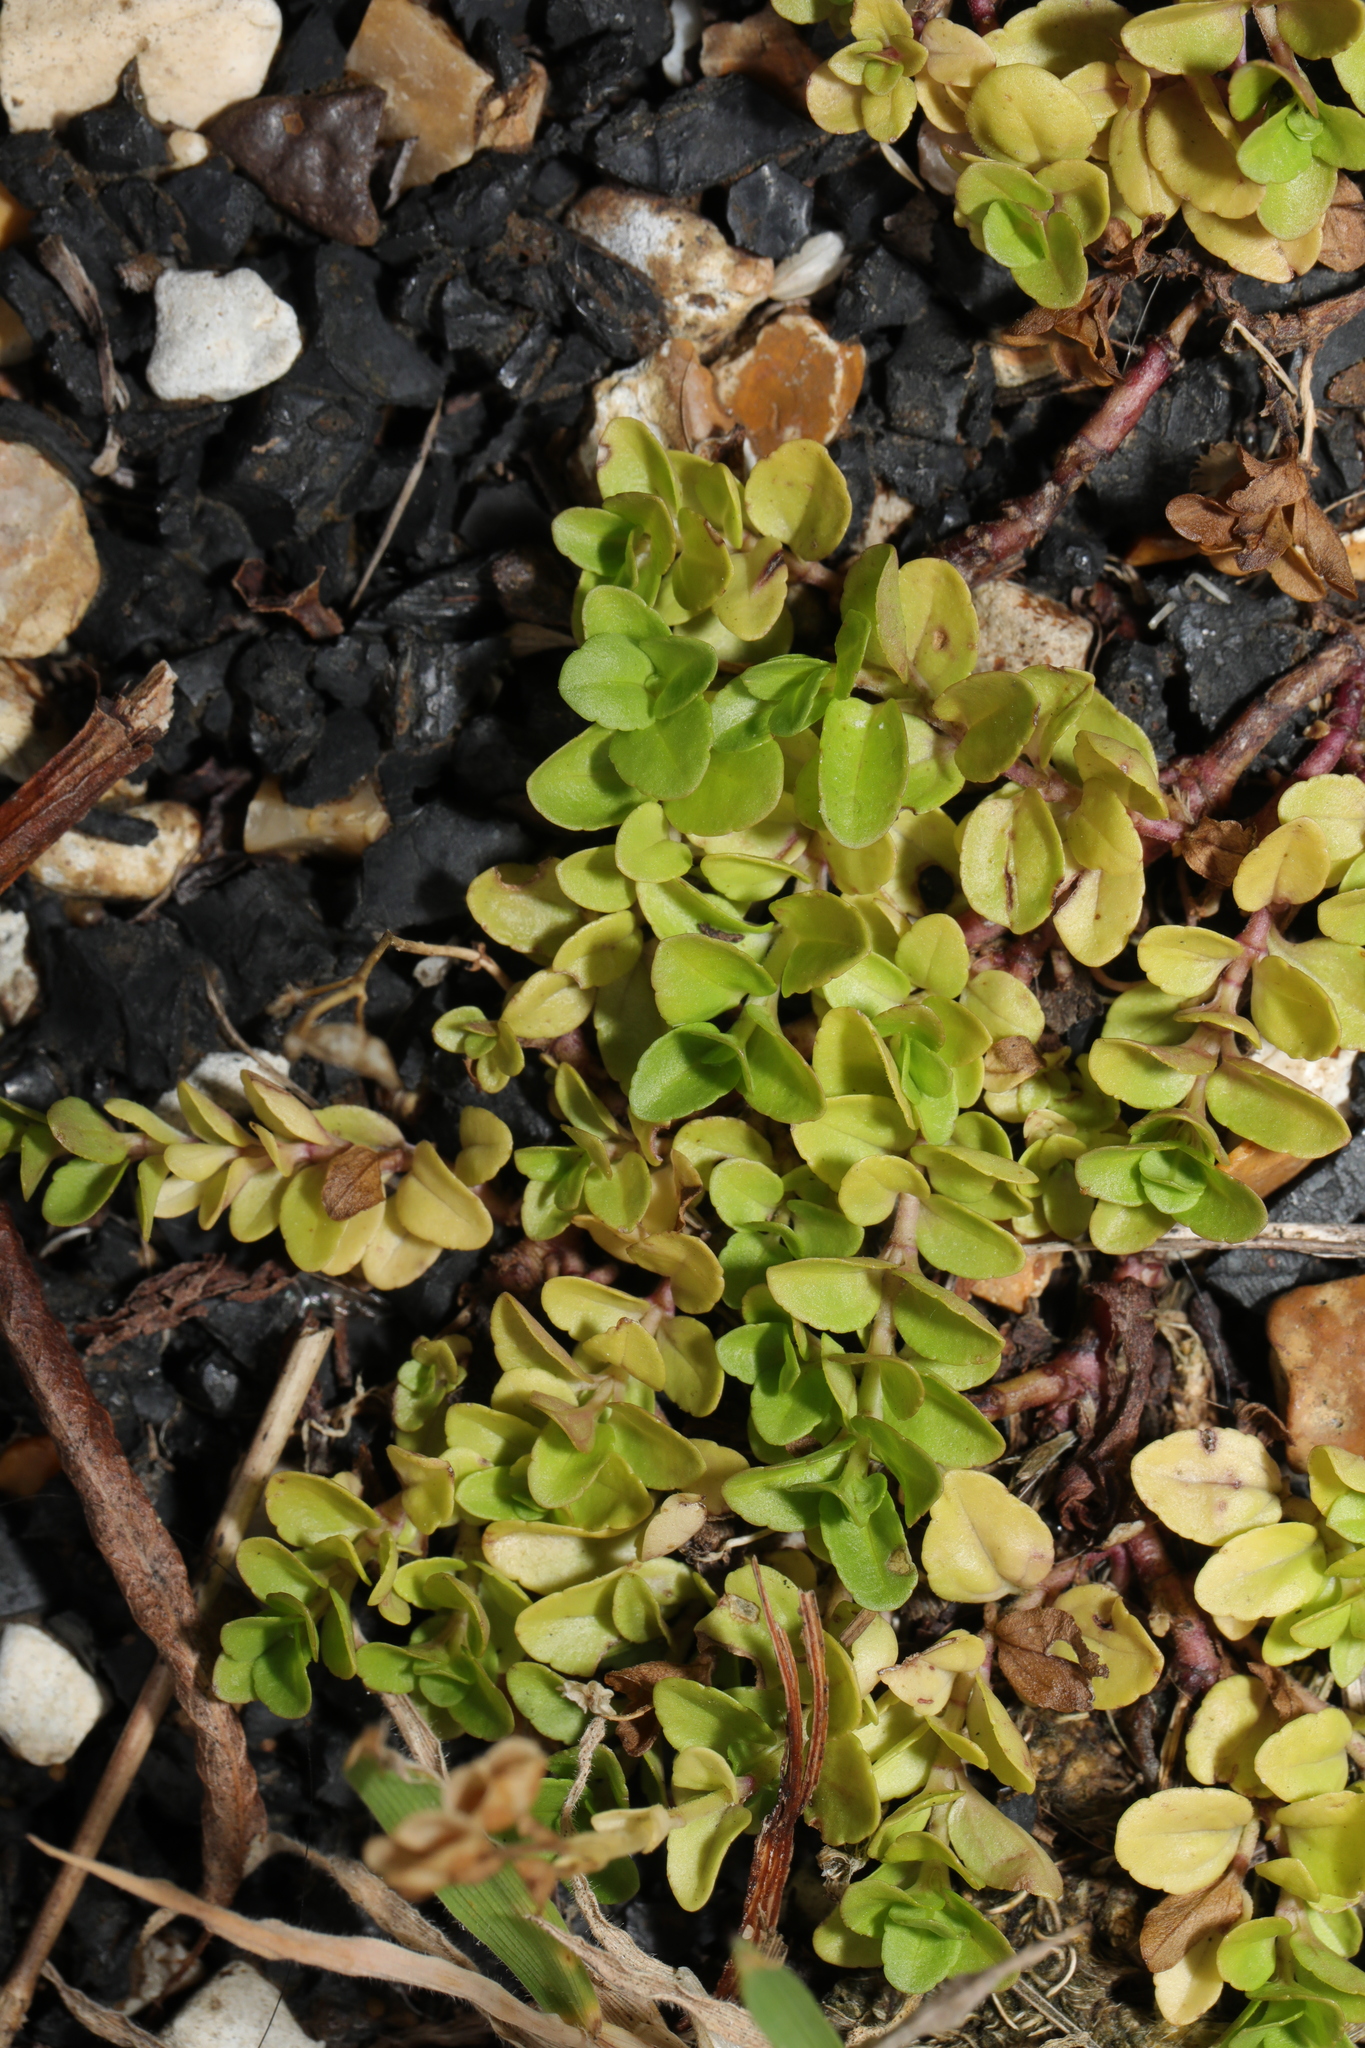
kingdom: Plantae
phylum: Tracheophyta
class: Magnoliopsida
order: Lamiales
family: Plantaginaceae
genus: Veronica
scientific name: Veronica serpyllifolia
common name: Thyme-leaved speedwell
